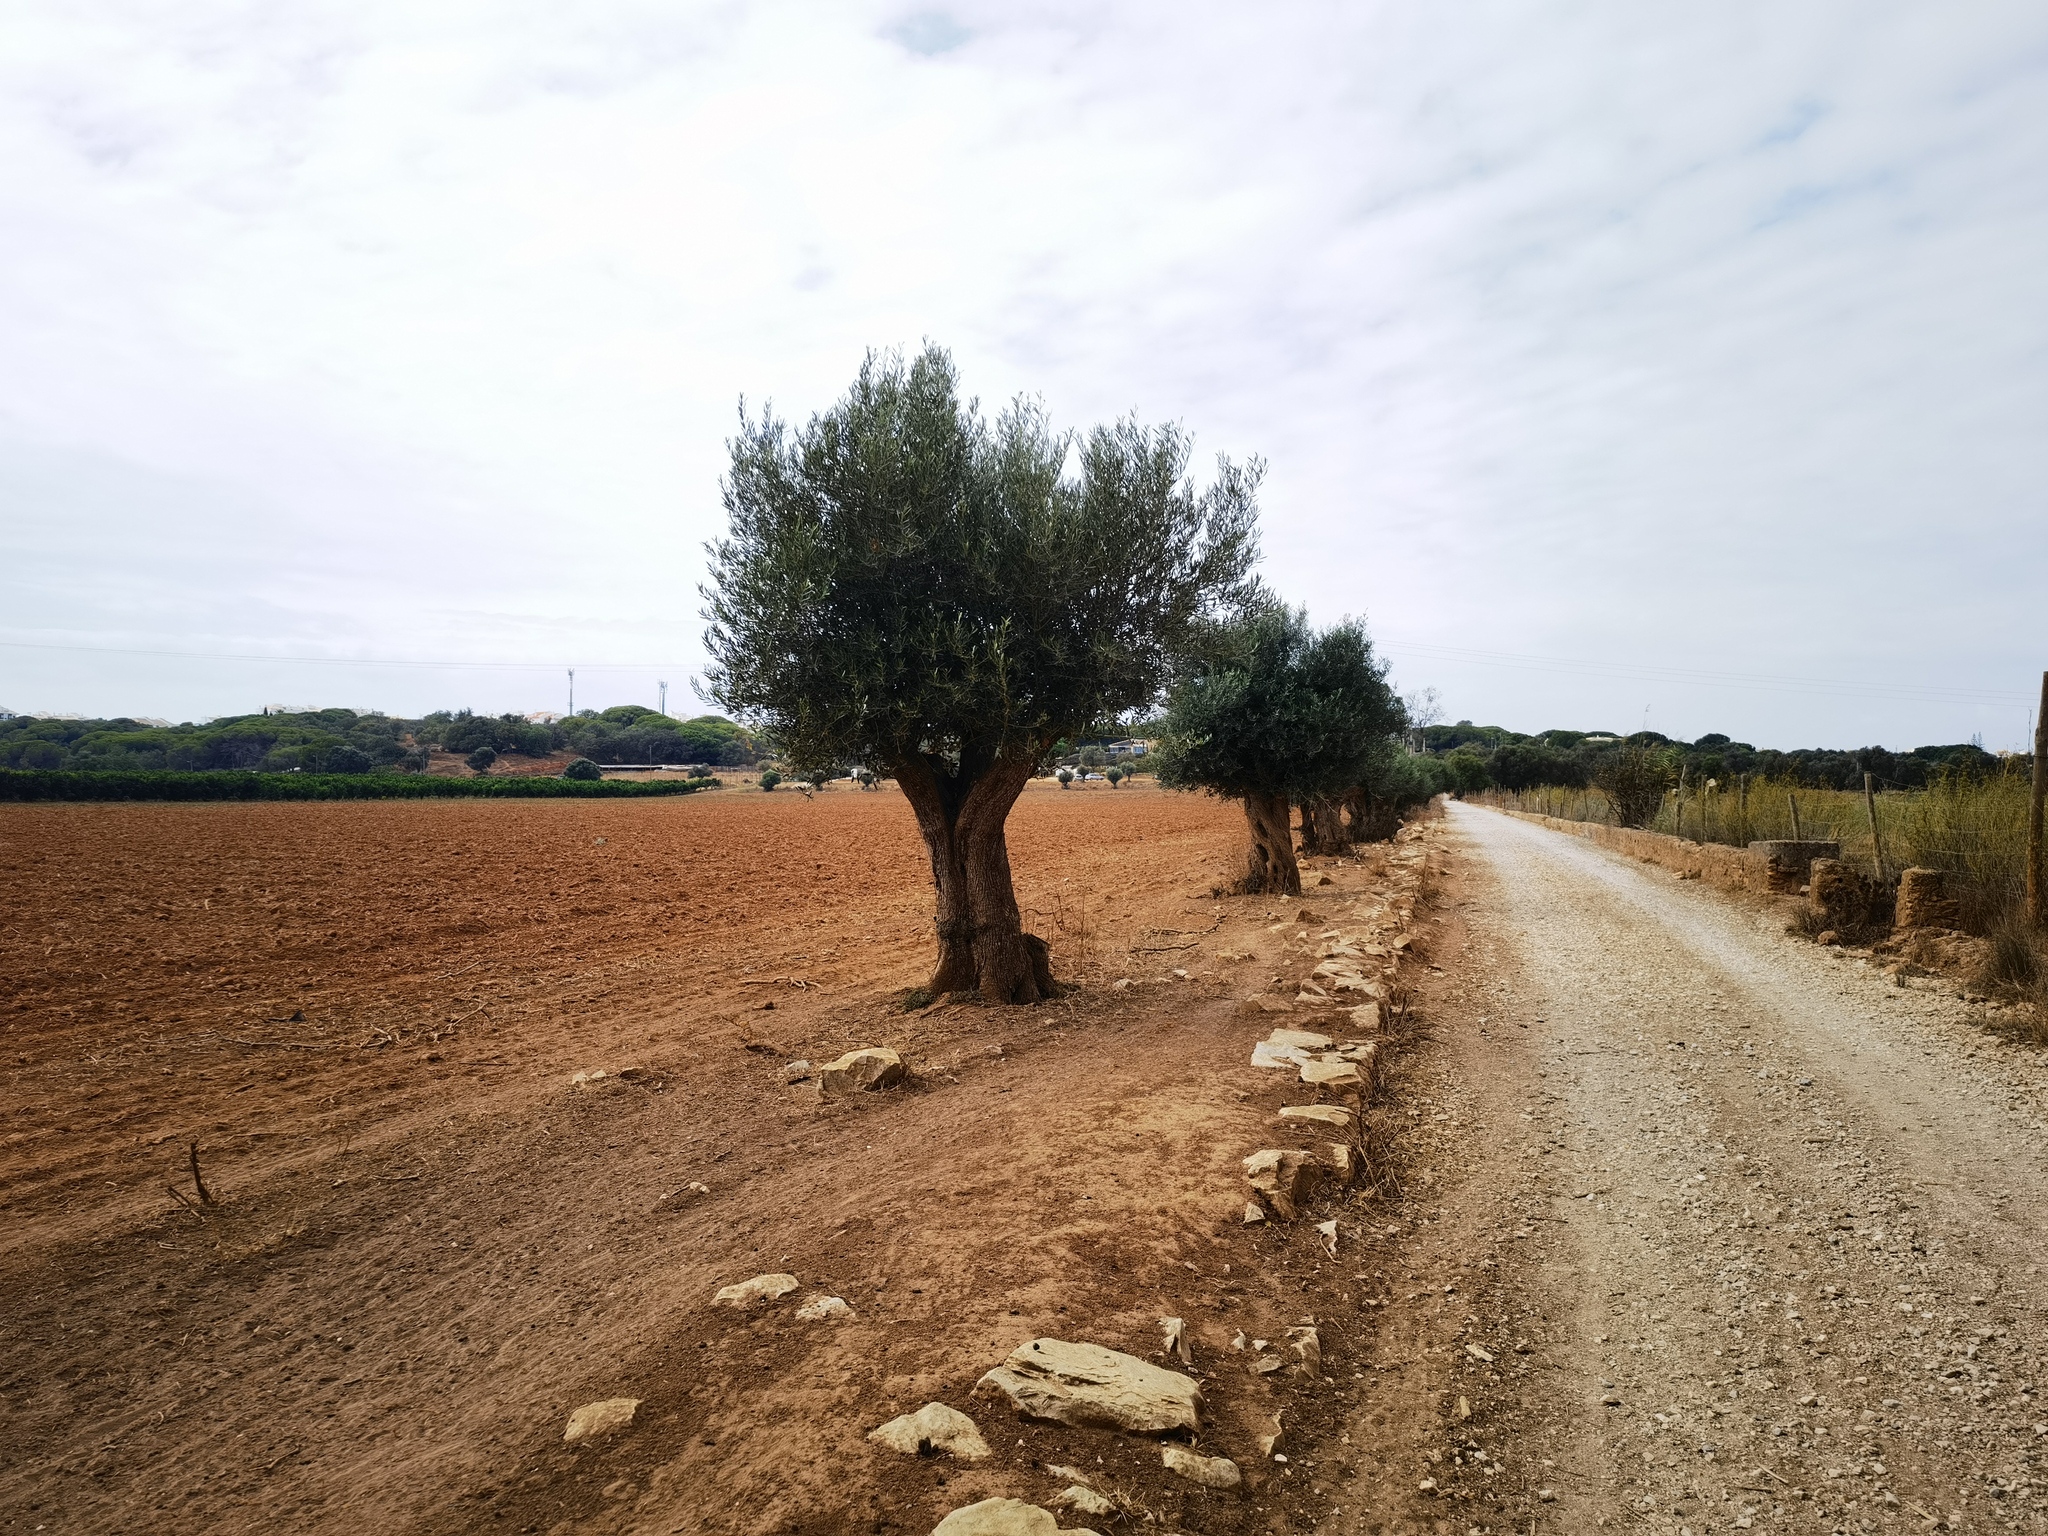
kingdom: Plantae
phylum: Tracheophyta
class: Magnoliopsida
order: Lamiales
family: Oleaceae
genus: Olea
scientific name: Olea europaea
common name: Olive
